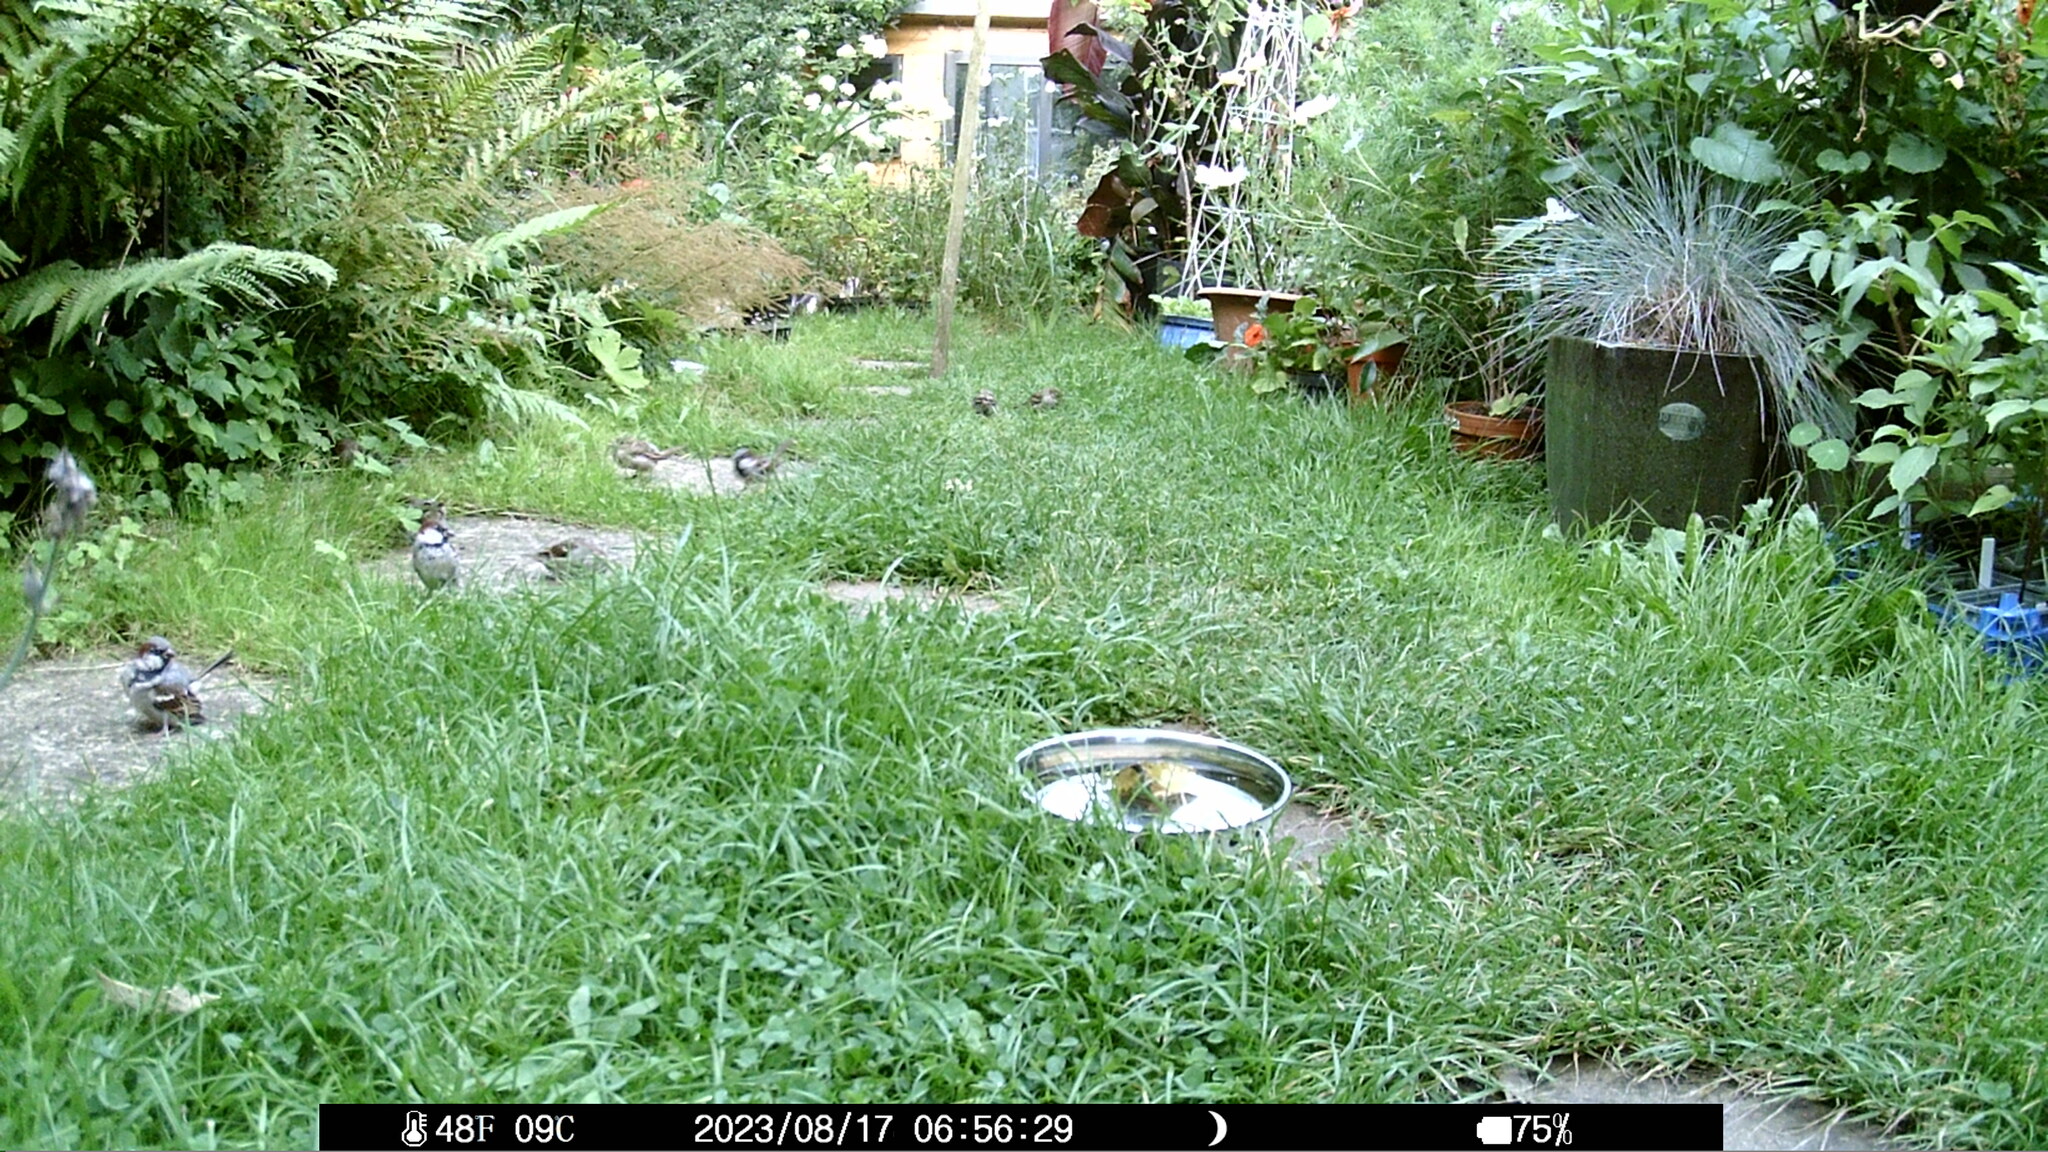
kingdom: Animalia
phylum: Chordata
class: Aves
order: Passeriformes
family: Passeridae
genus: Passer
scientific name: Passer domesticus
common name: House sparrow
